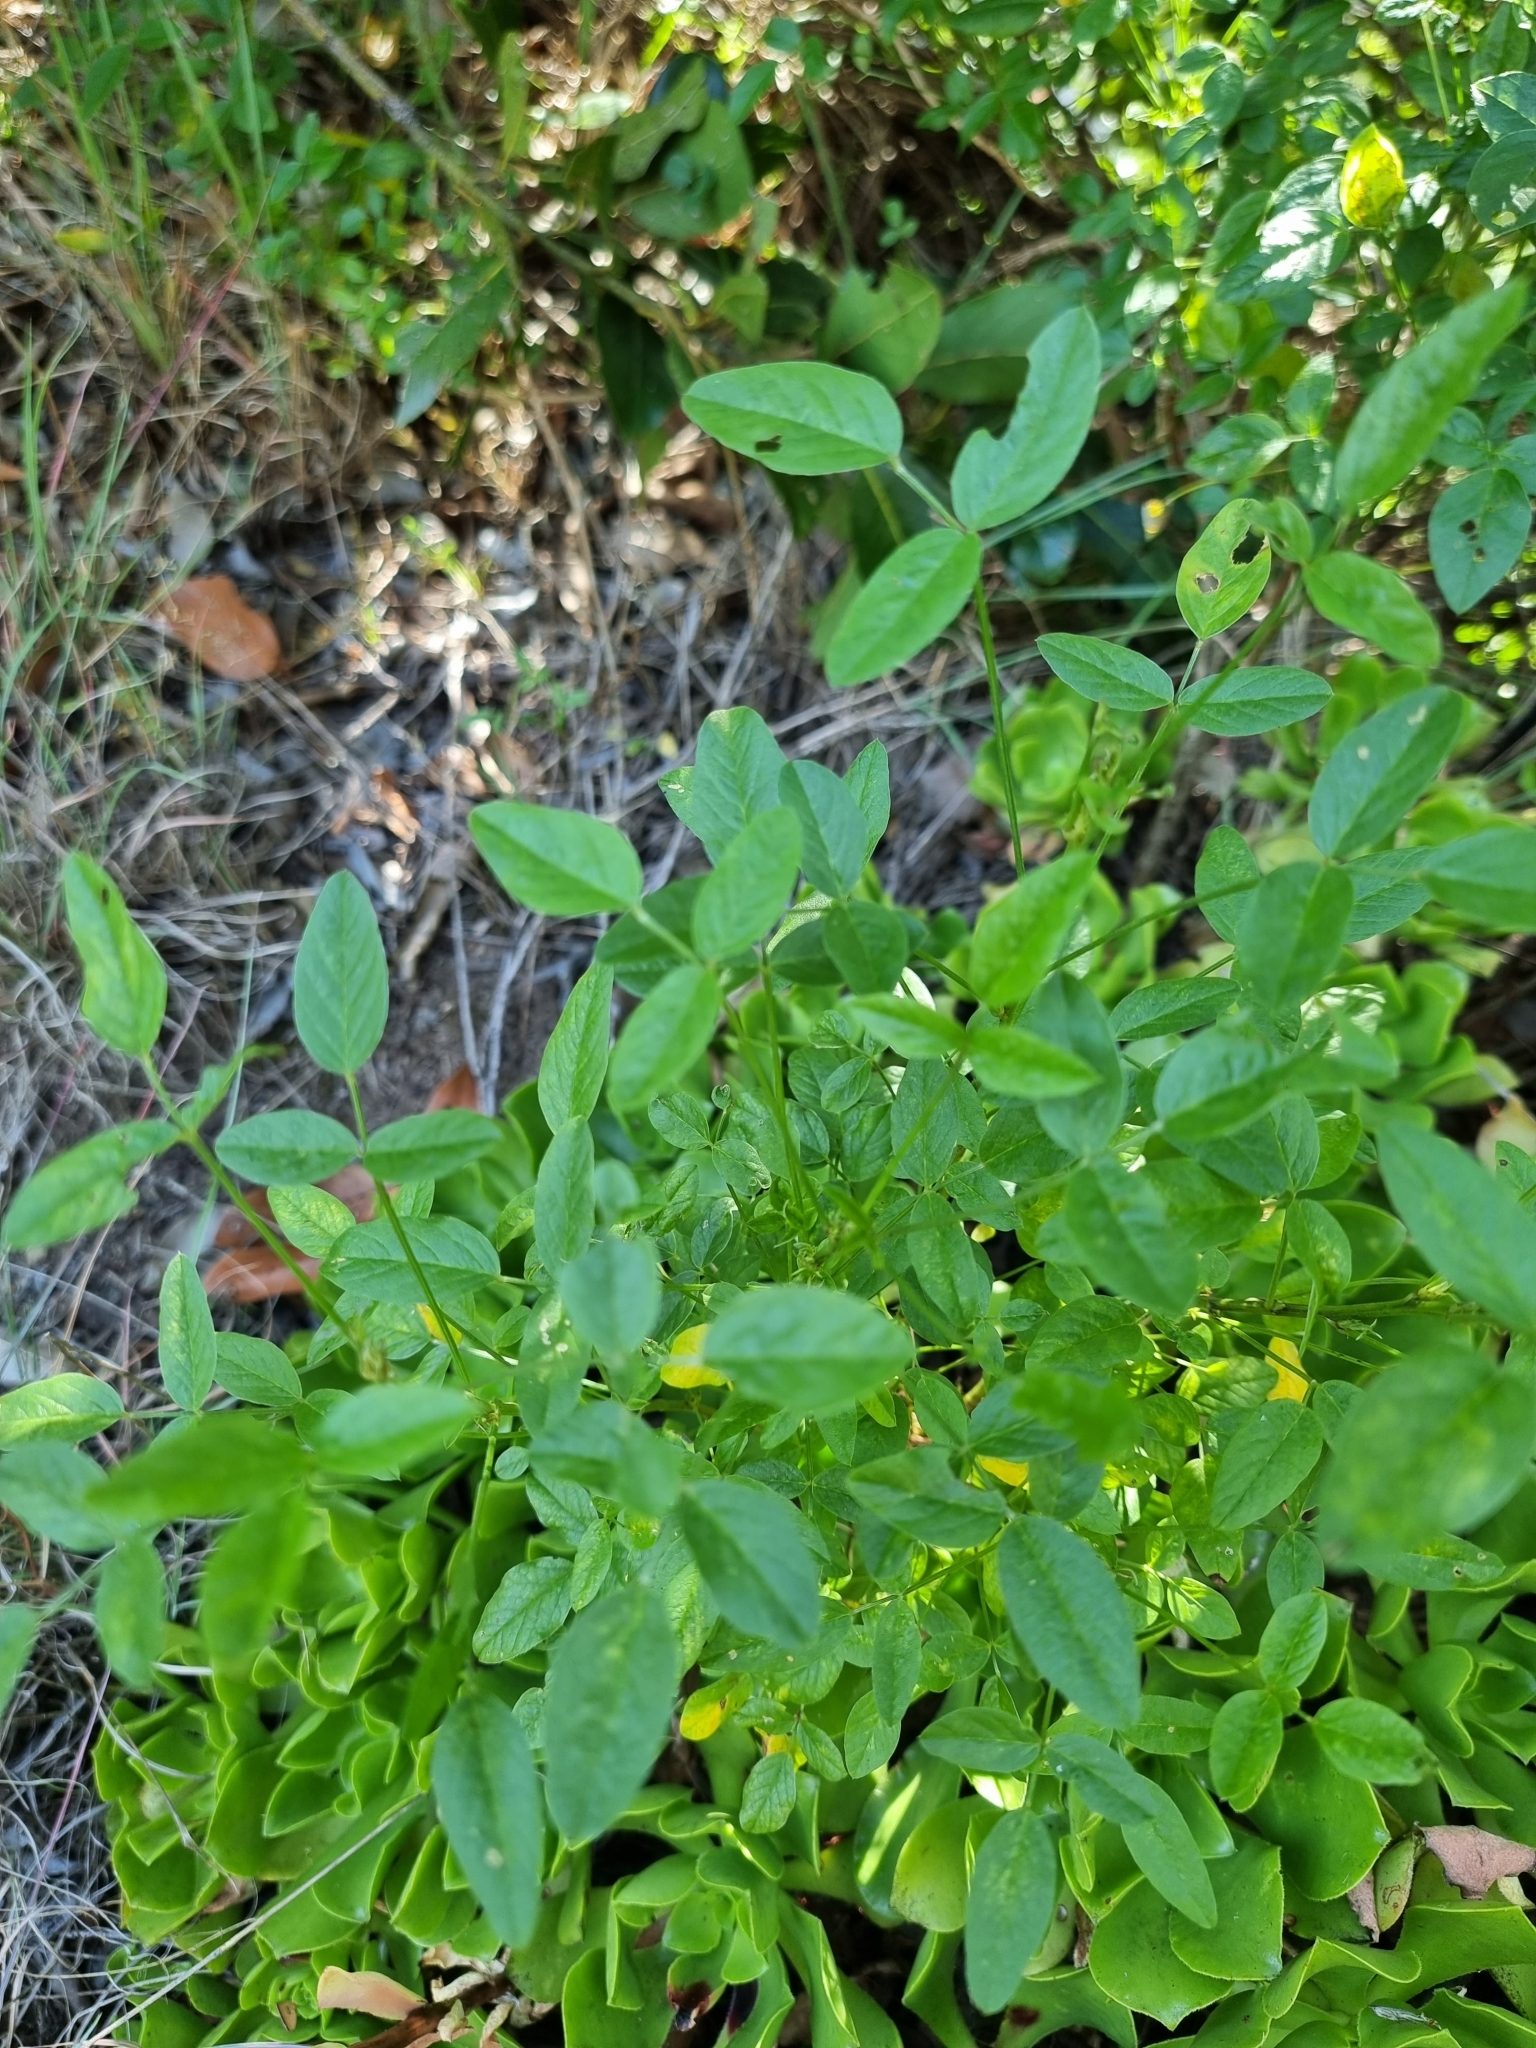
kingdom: Plantae
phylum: Tracheophyta
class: Magnoliopsida
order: Fabales
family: Fabaceae
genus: Bituminaria
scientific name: Bituminaria bituminosa
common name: Arabian pea
